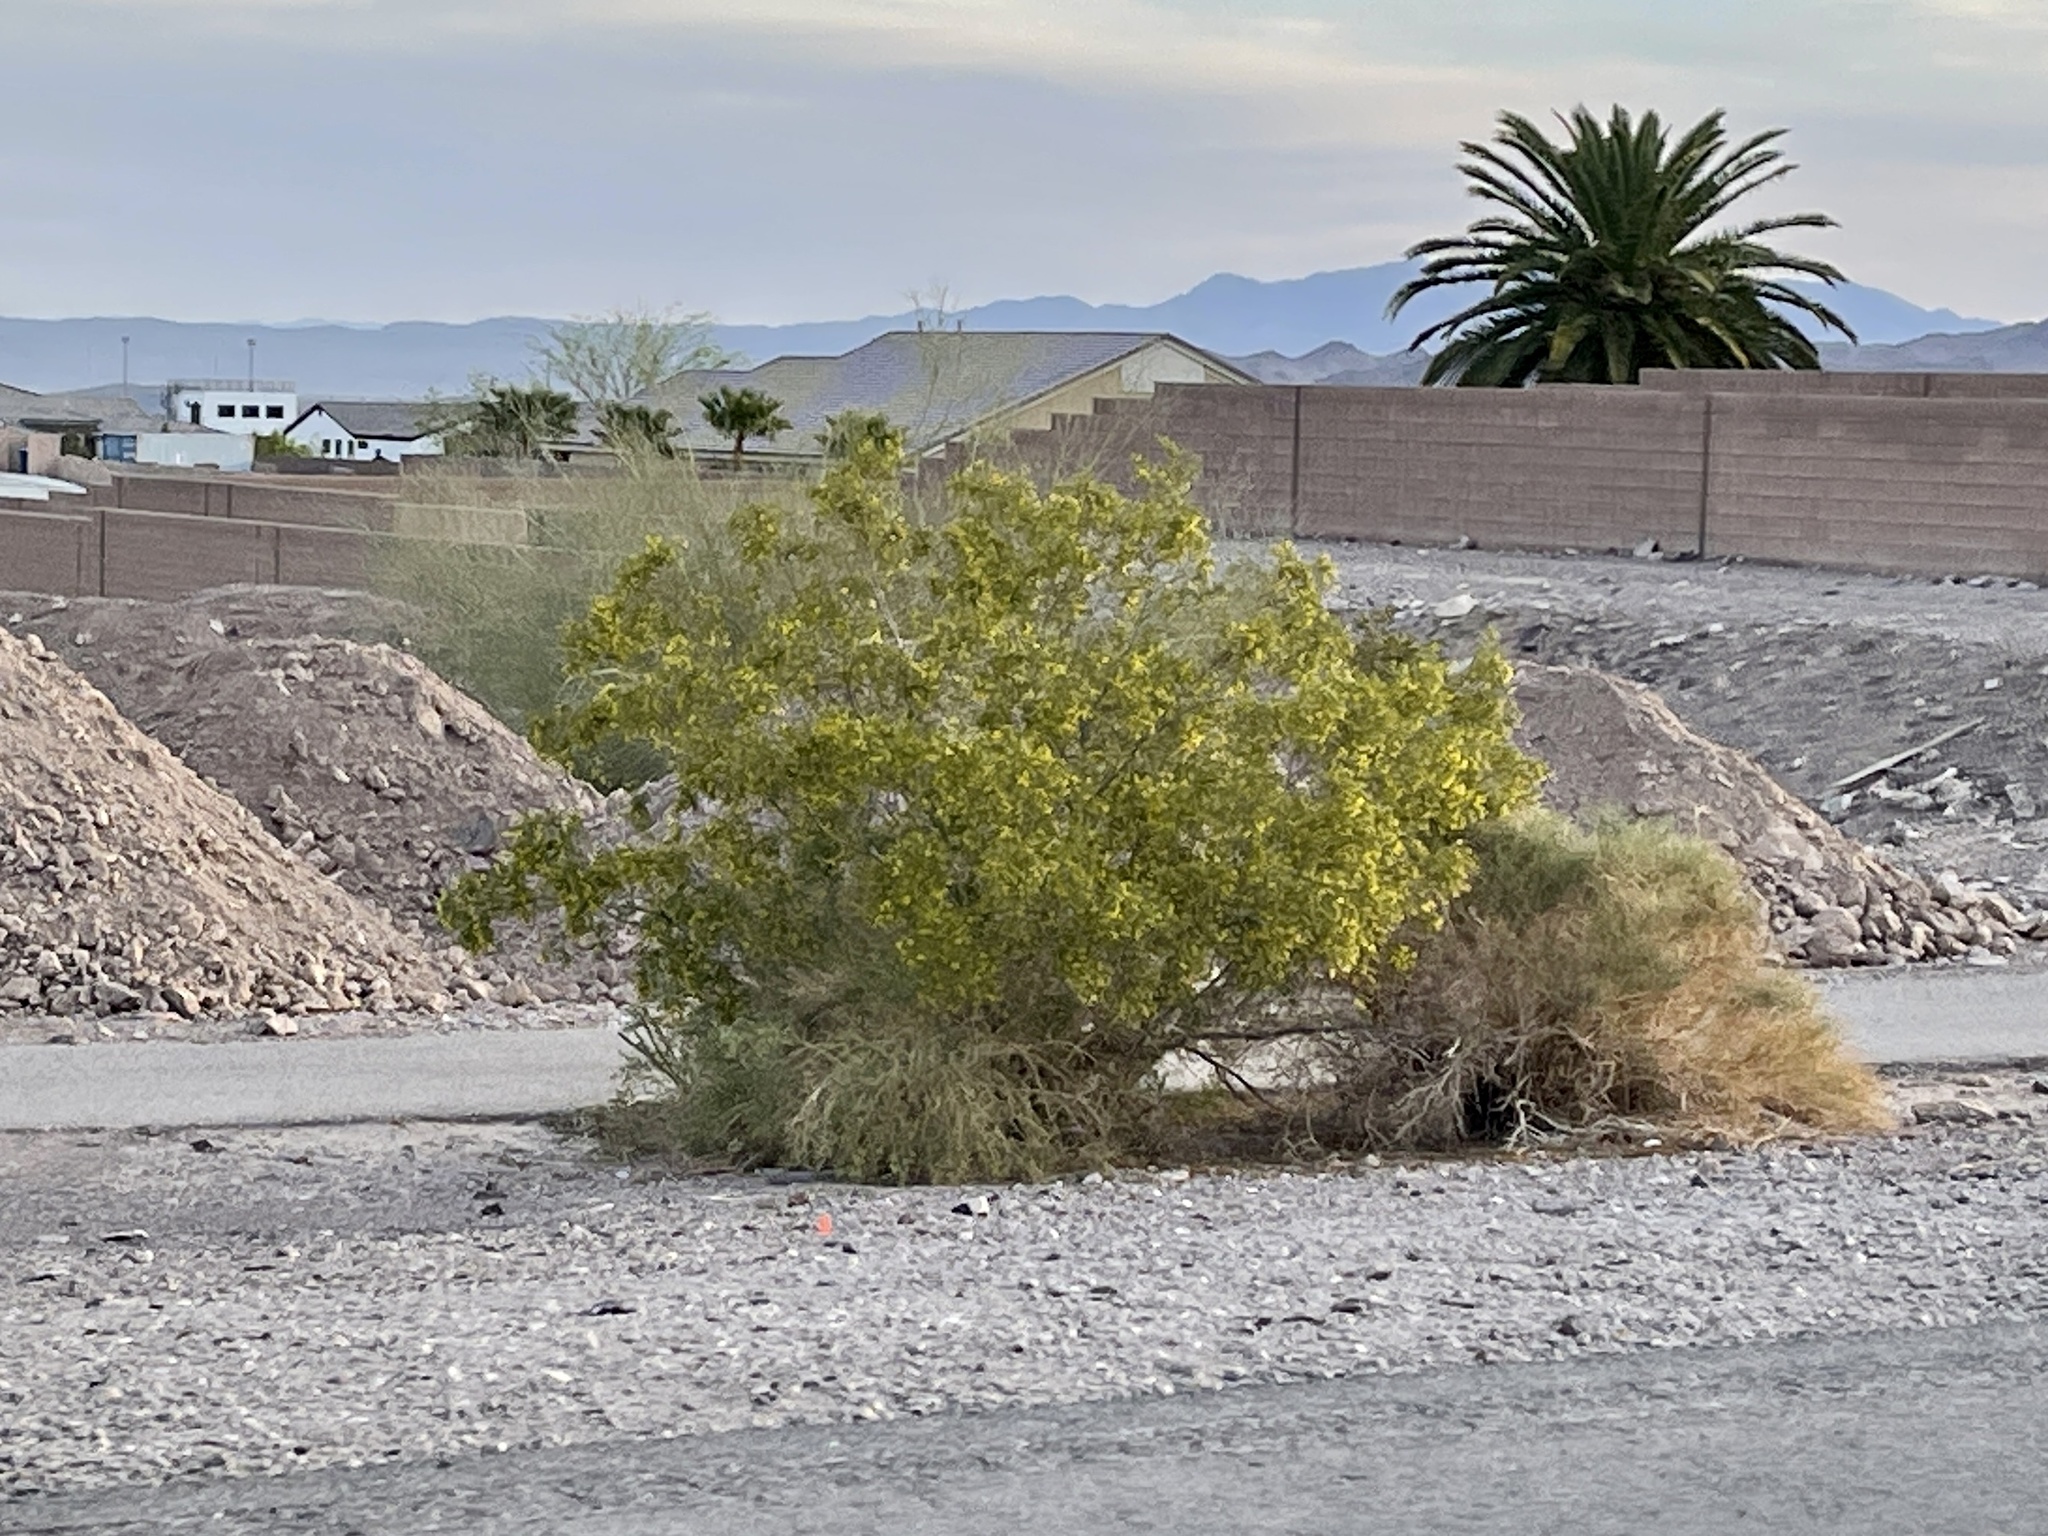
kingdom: Plantae
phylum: Tracheophyta
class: Magnoliopsida
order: Zygophyllales
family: Zygophyllaceae
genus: Larrea
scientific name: Larrea tridentata
